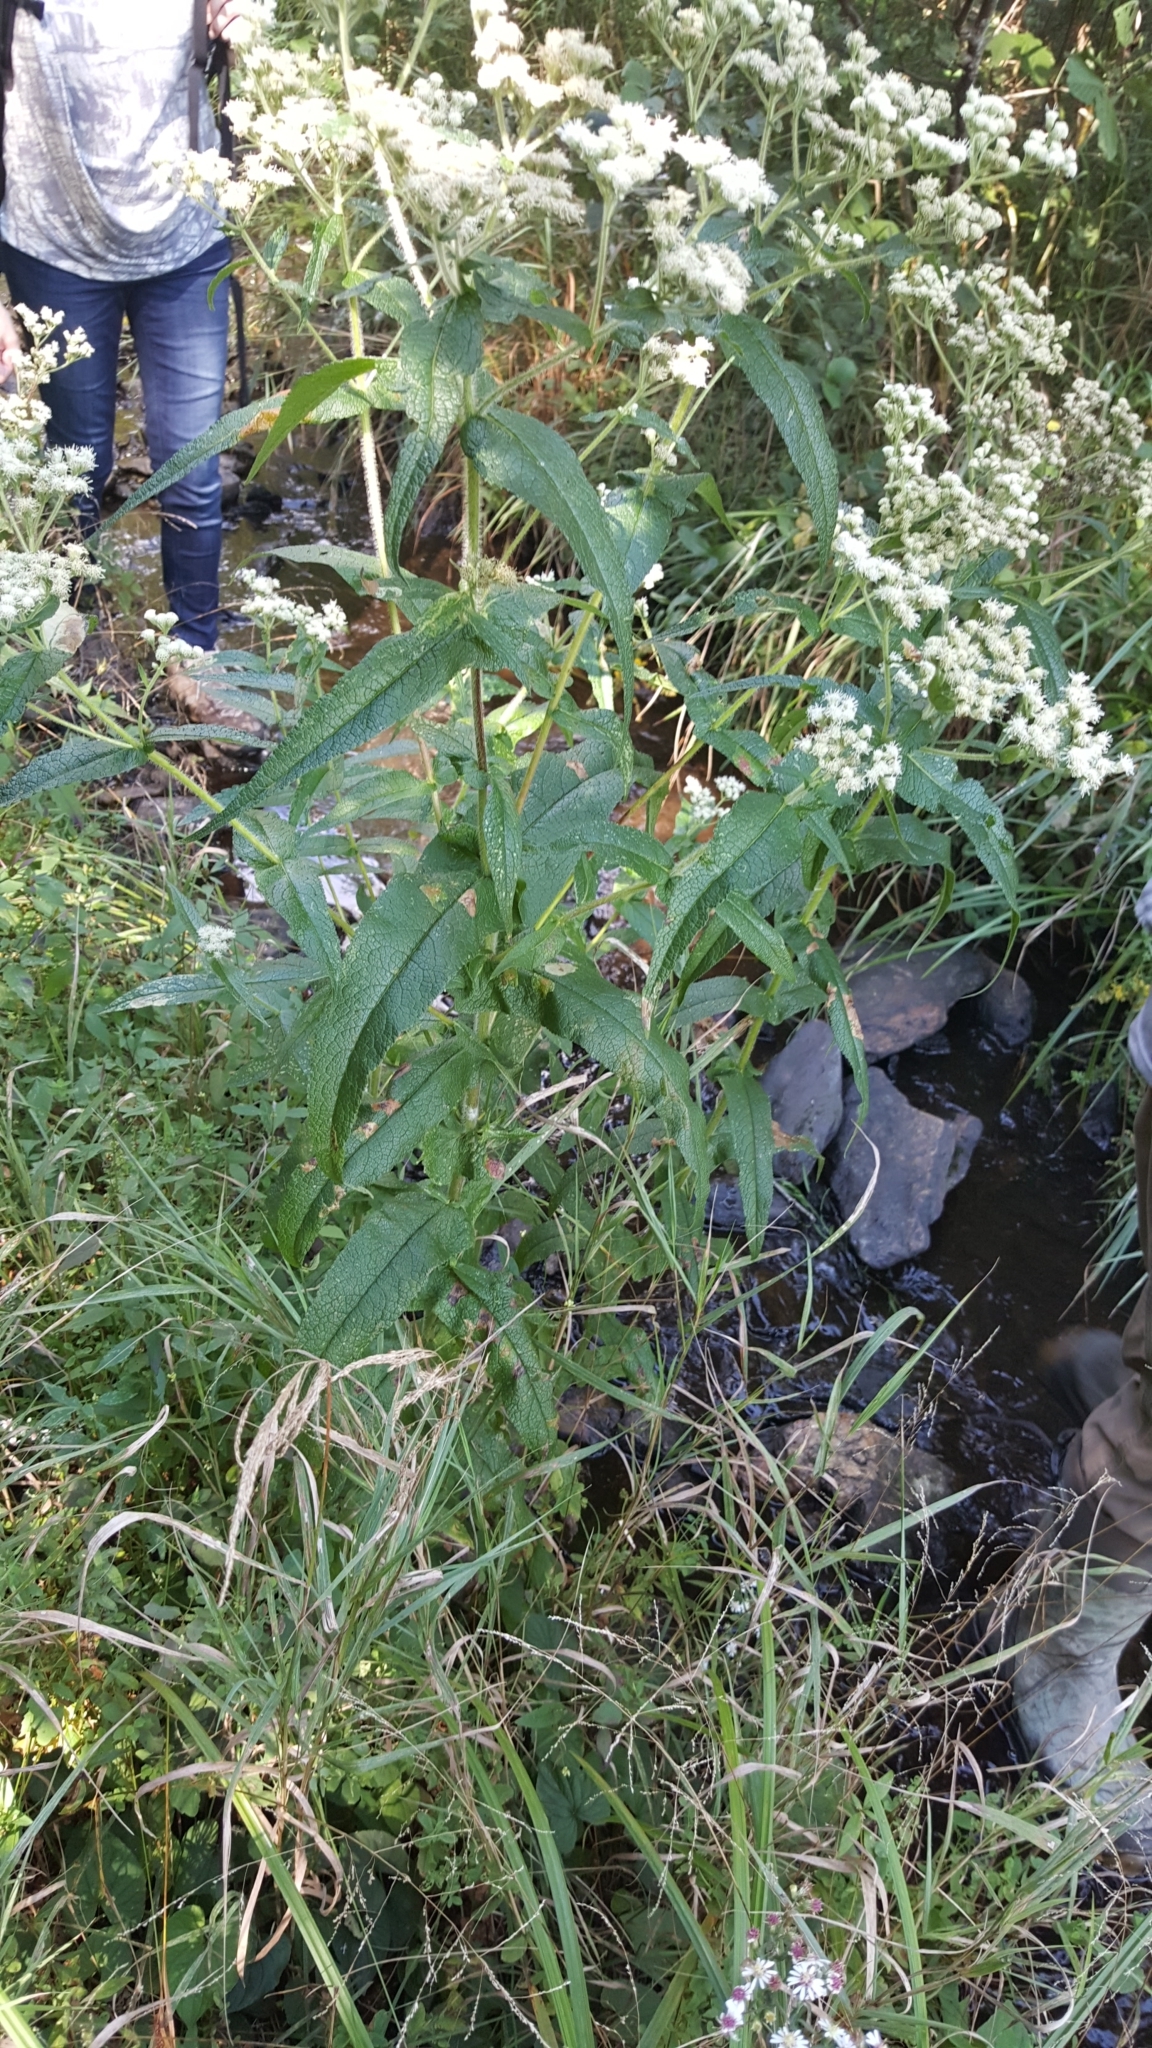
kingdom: Plantae
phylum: Tracheophyta
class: Magnoliopsida
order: Asterales
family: Asteraceae
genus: Eupatorium
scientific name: Eupatorium perfoliatum
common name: Boneset
